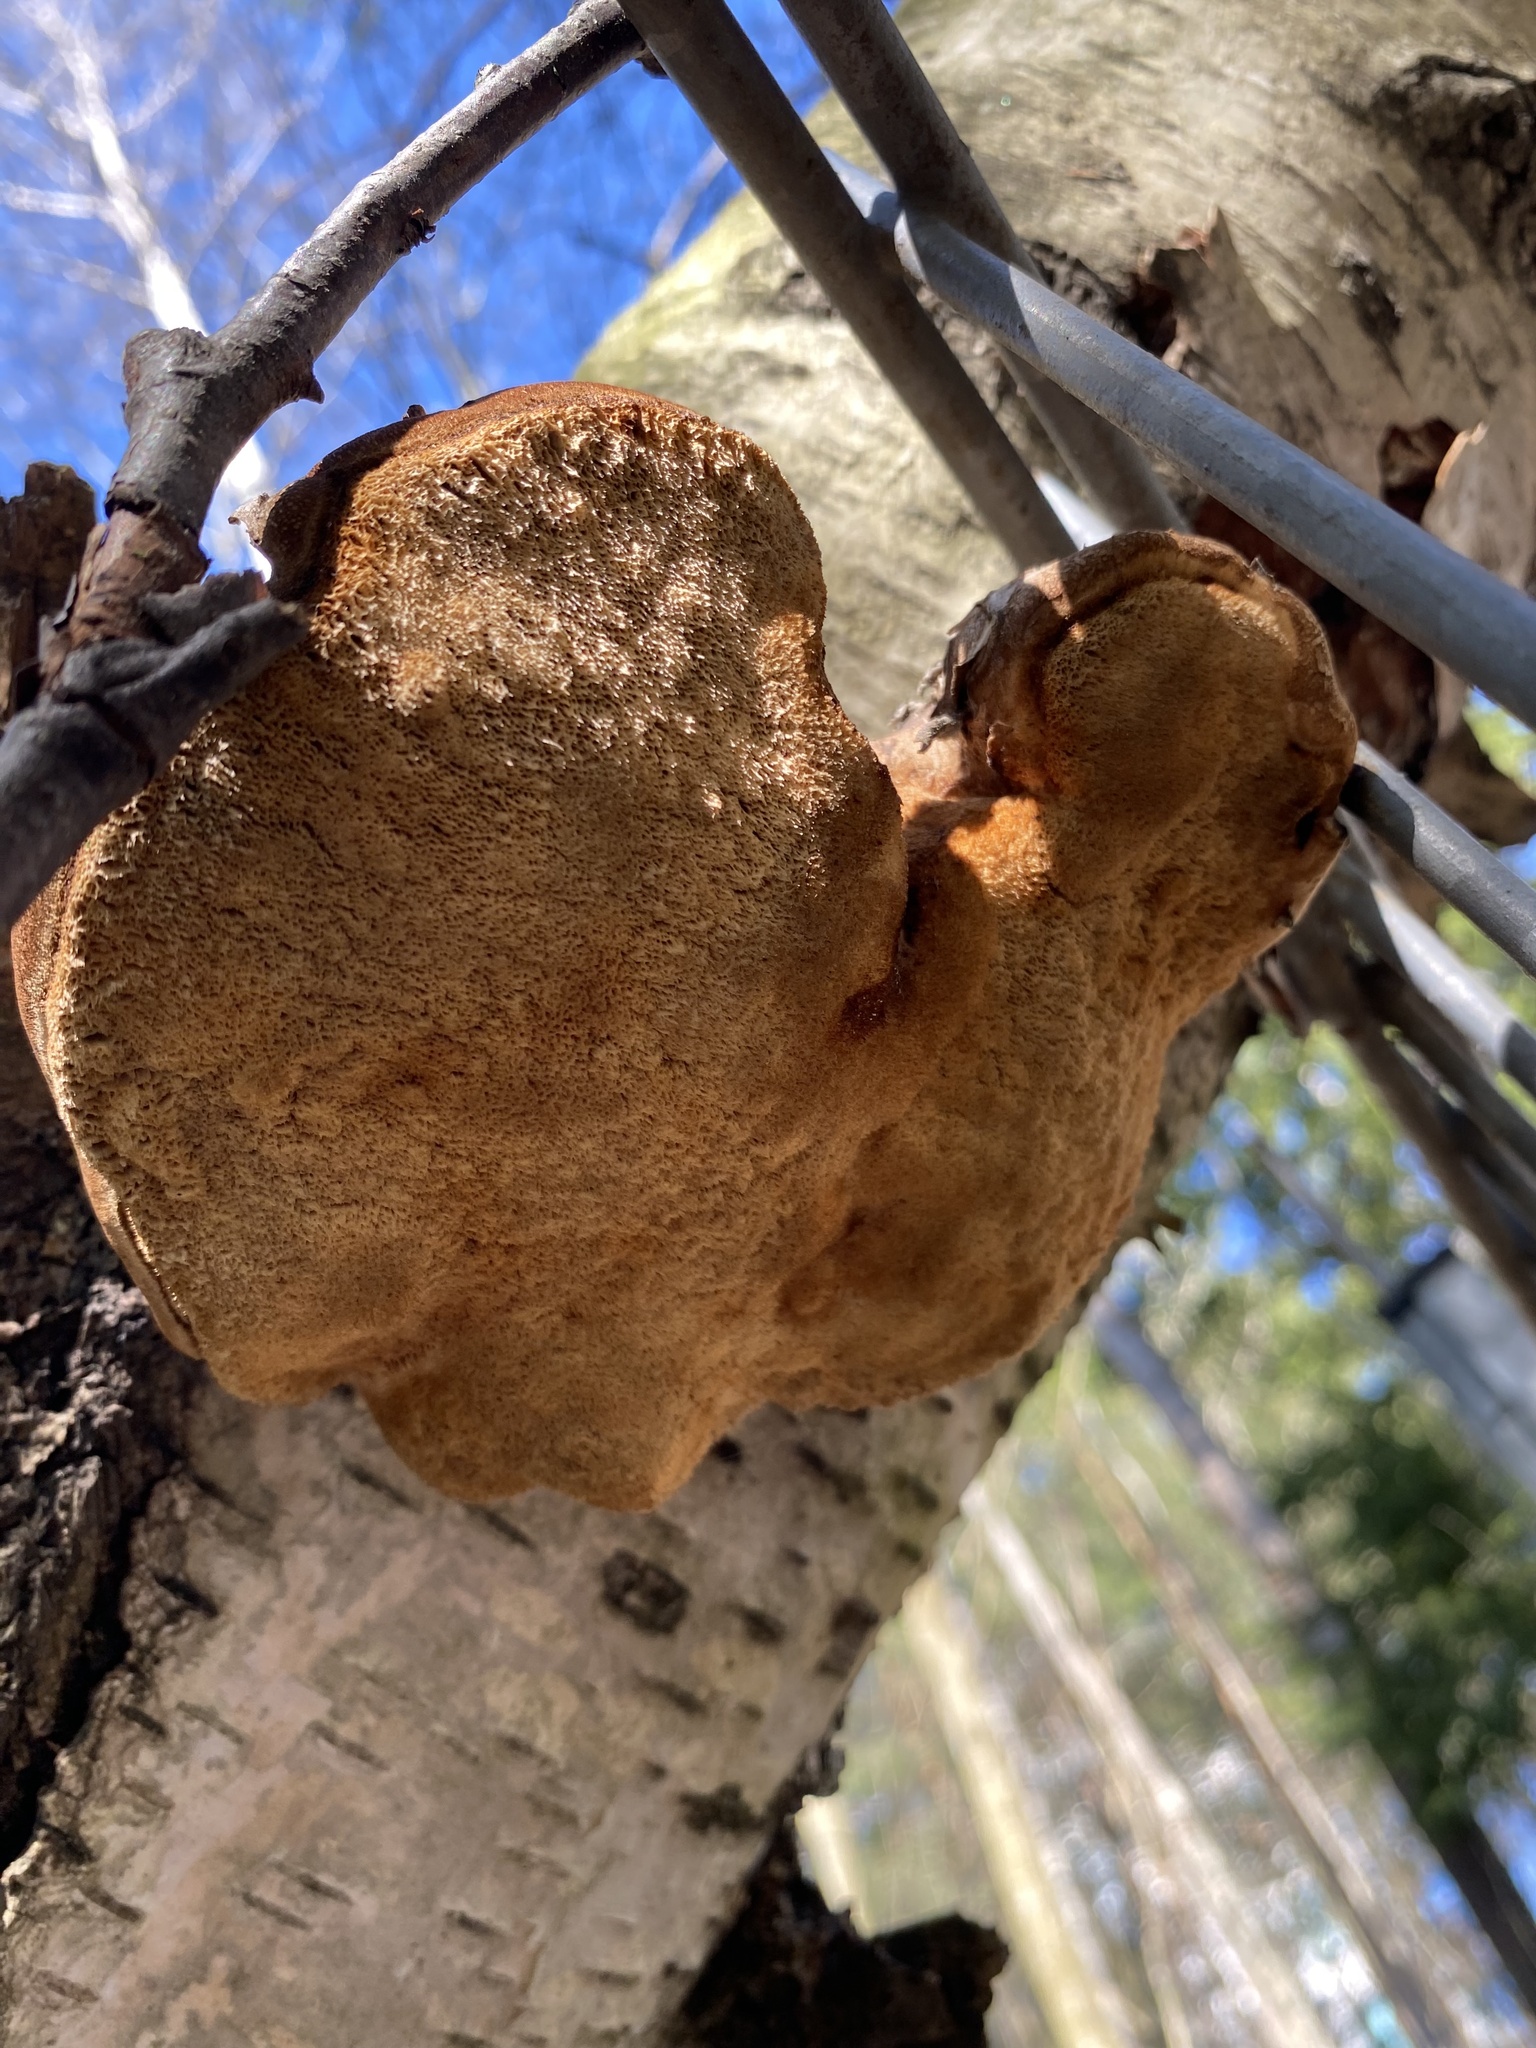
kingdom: Fungi
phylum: Basidiomycota
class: Agaricomycetes
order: Polyporales
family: Fomitopsidaceae
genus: Fomitopsis
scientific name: Fomitopsis betulina
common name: Birch polypore
